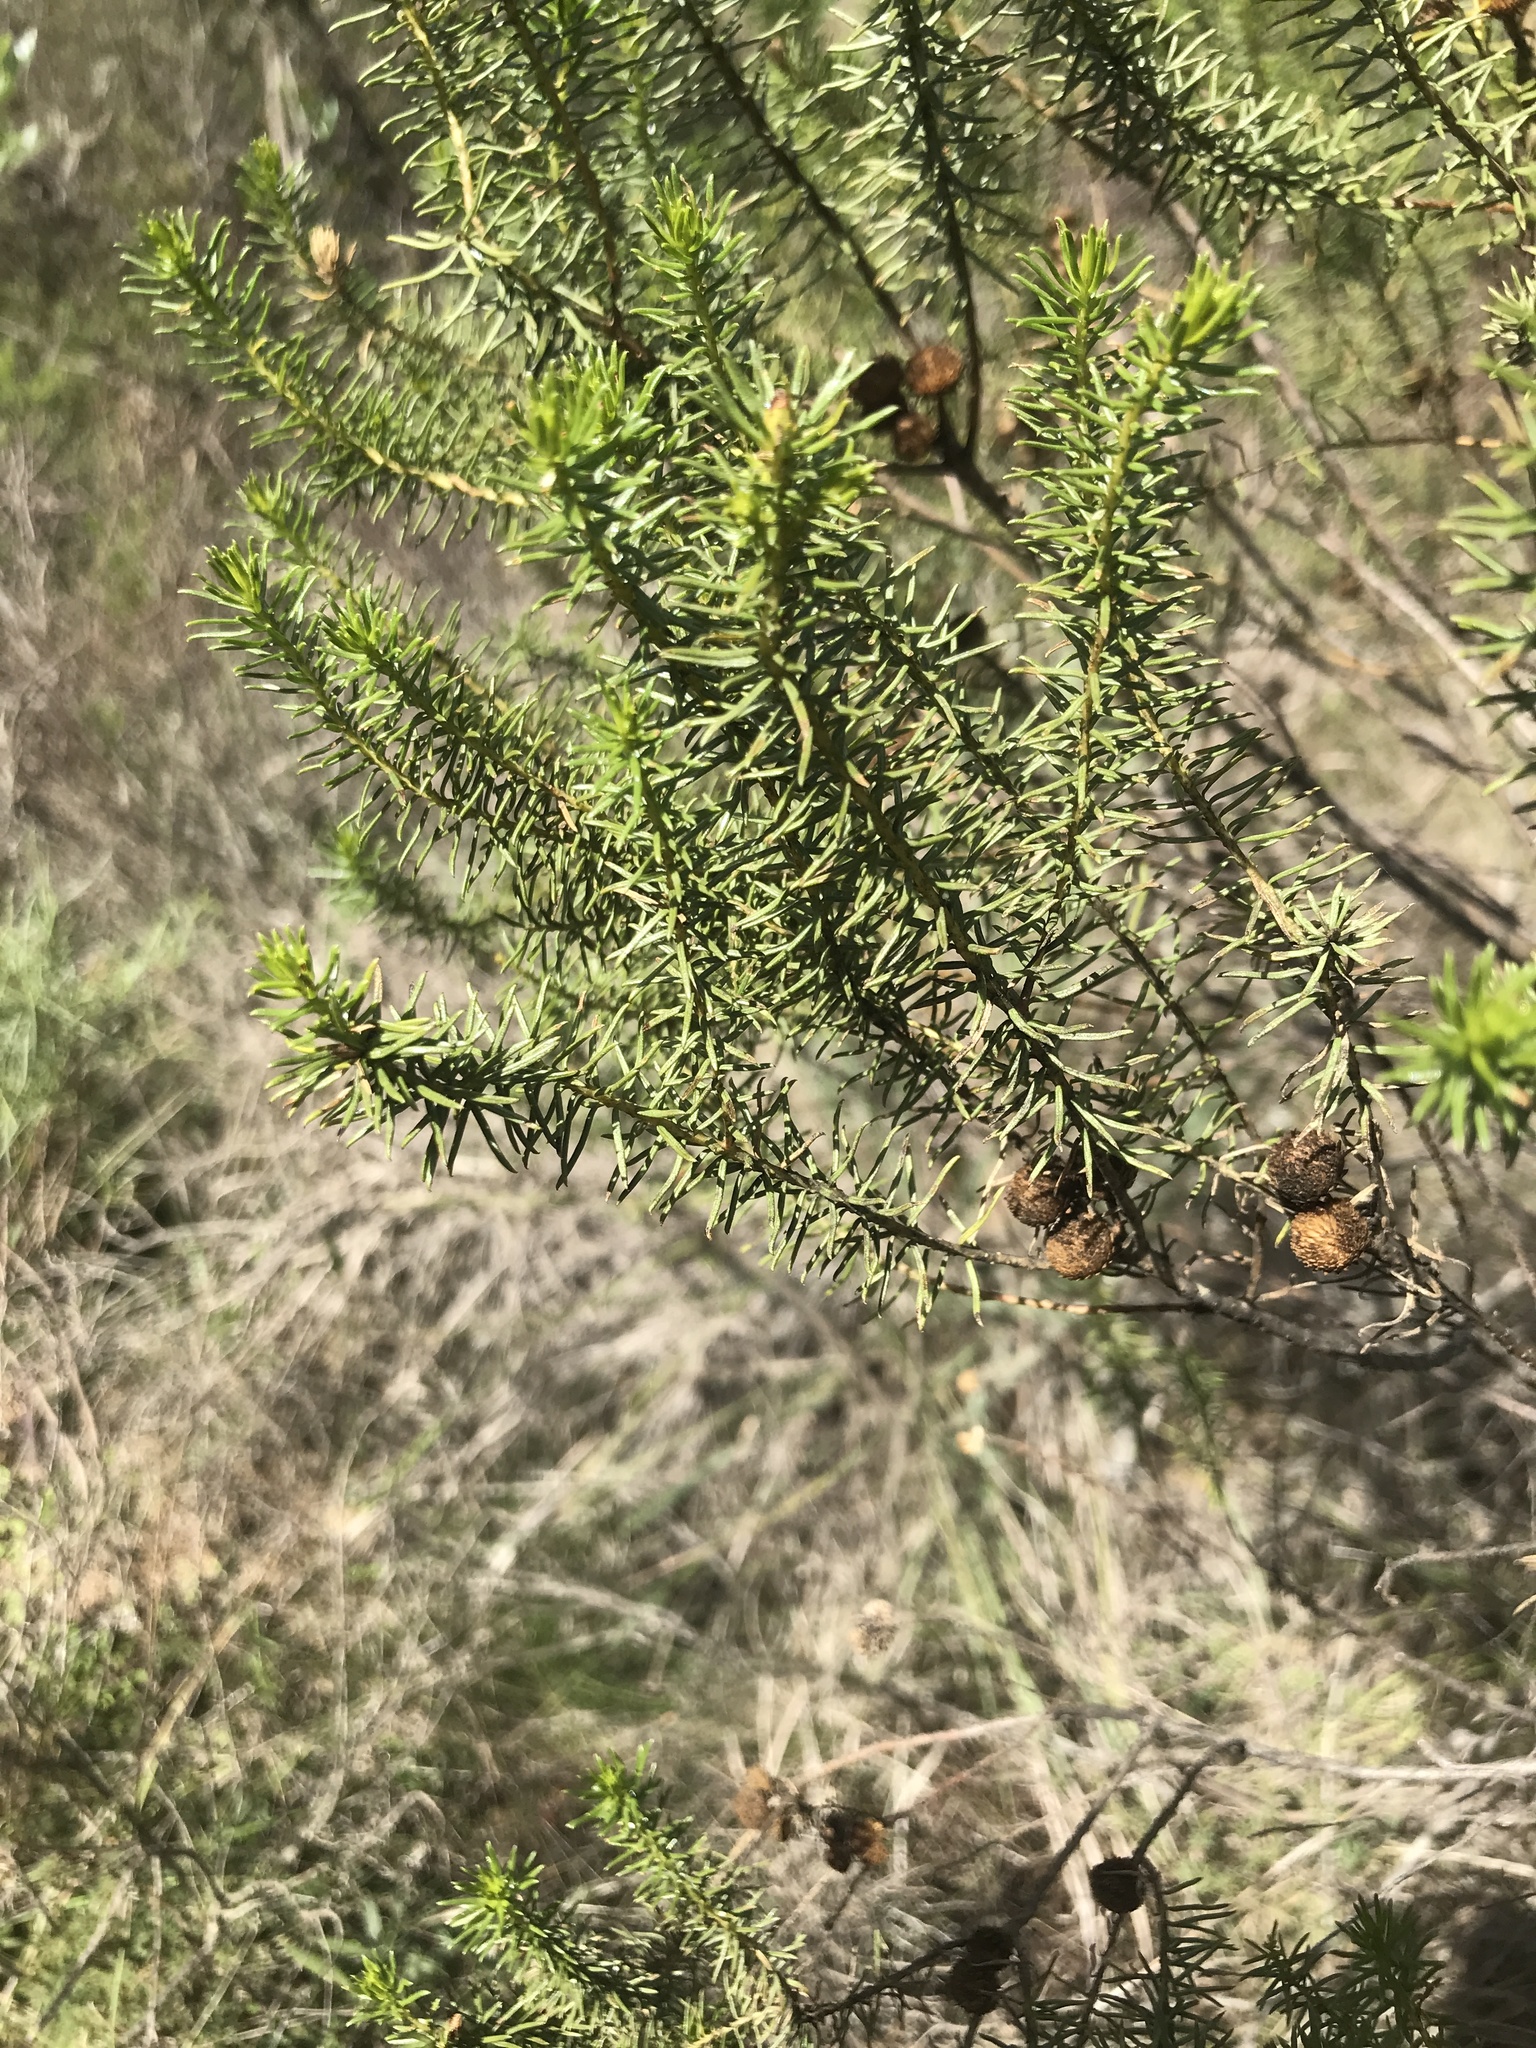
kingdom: Plantae
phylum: Tracheophyta
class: Magnoliopsida
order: Asterales
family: Asteraceae
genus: Baccharis
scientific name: Baccharis aliena
